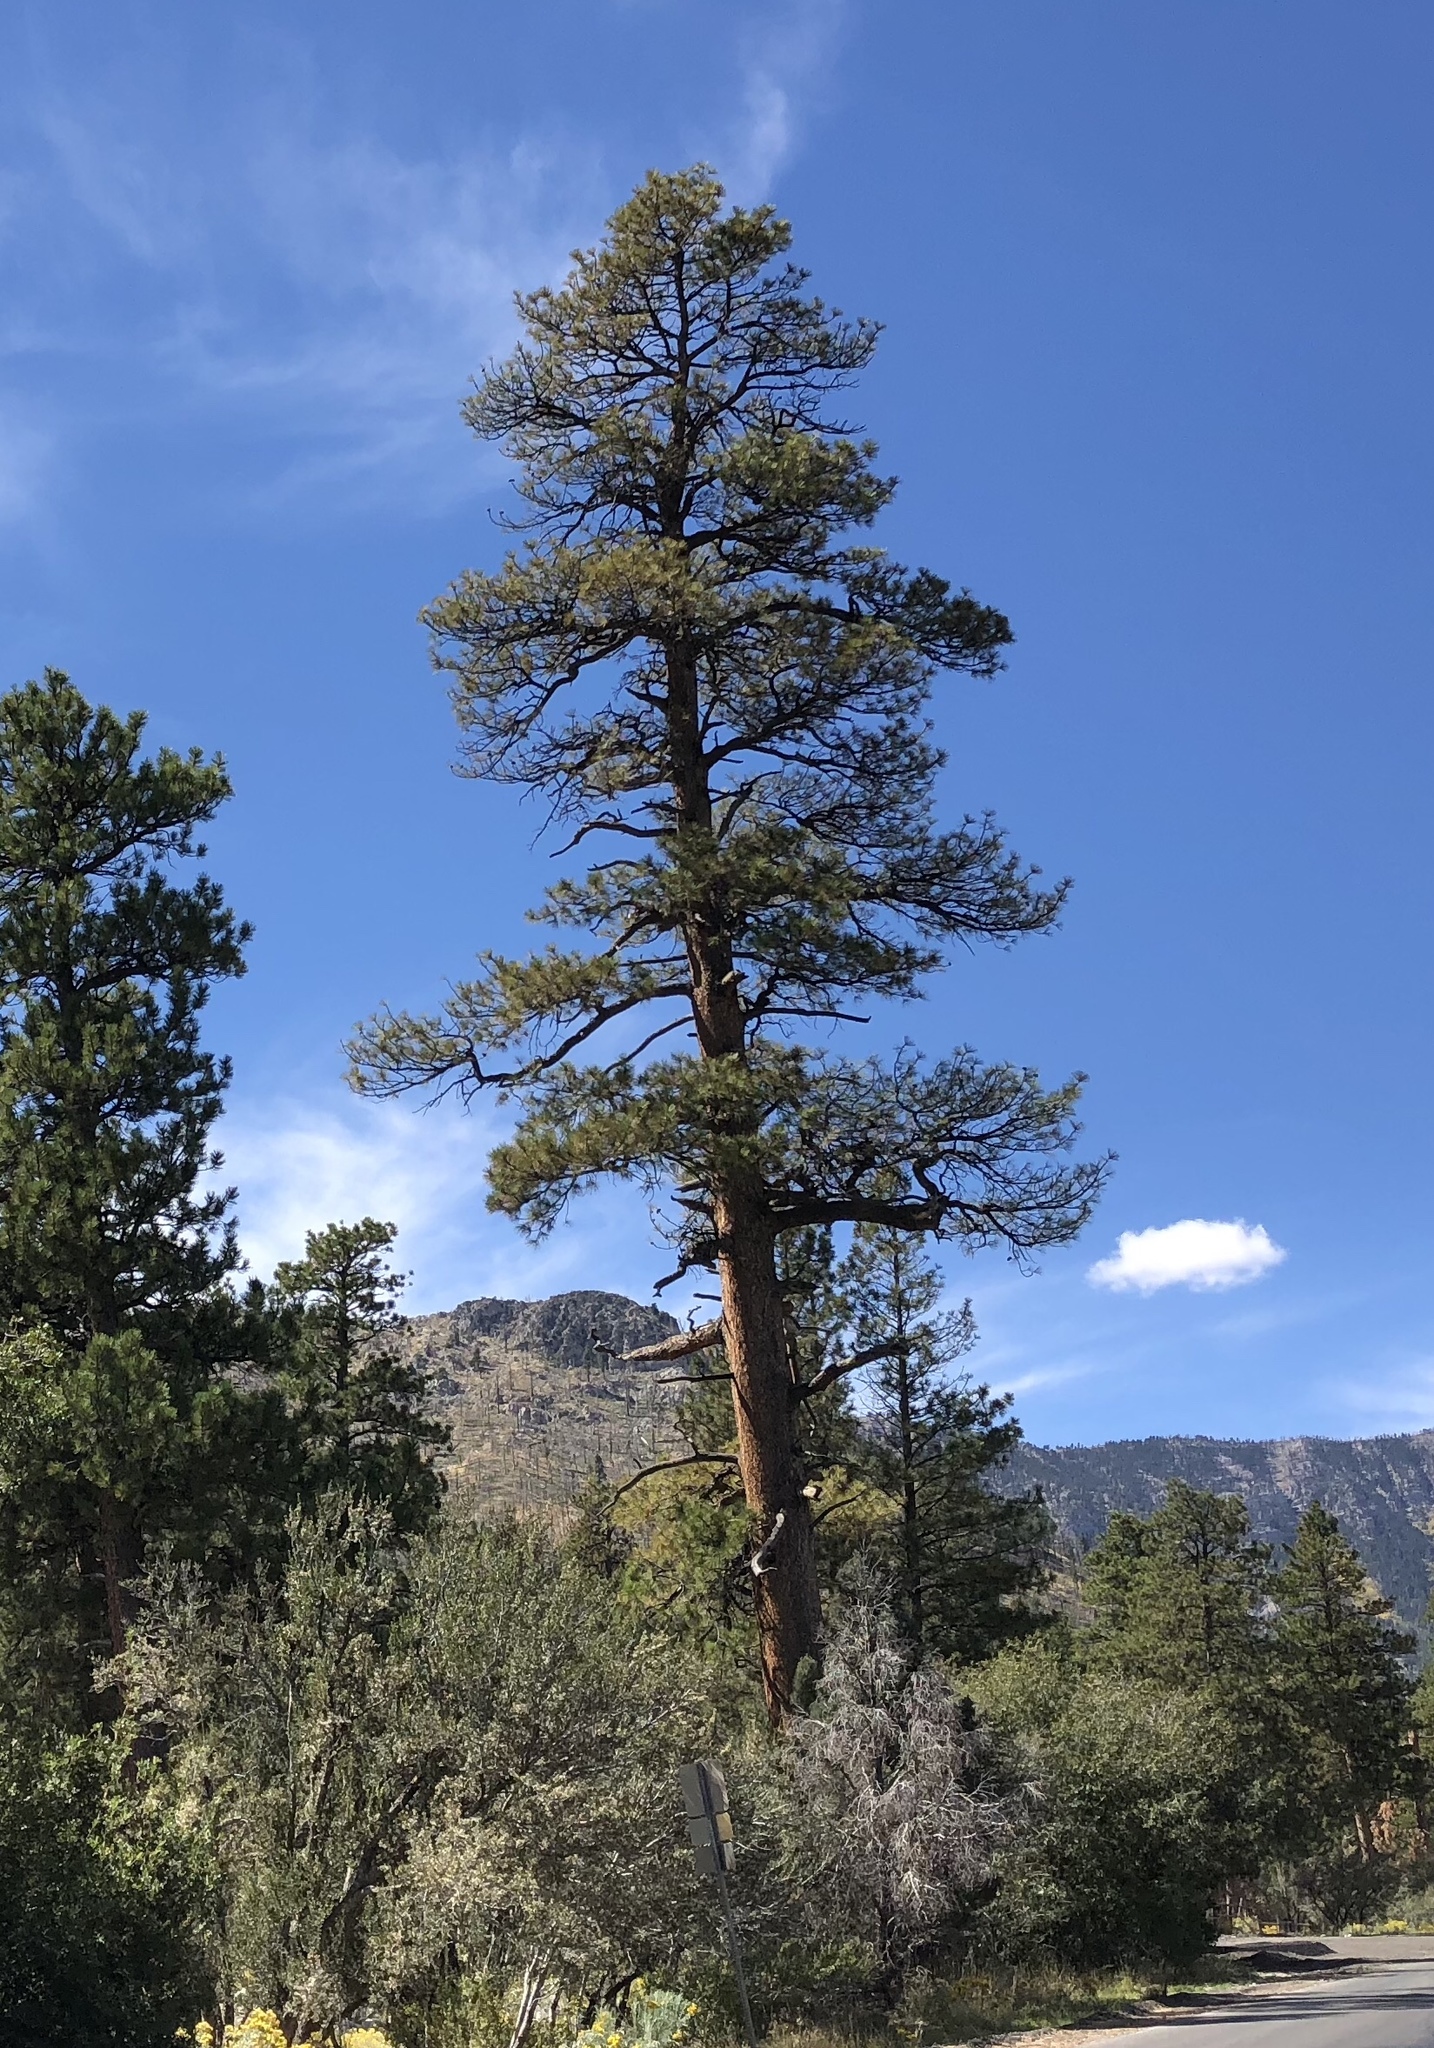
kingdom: Plantae
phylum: Tracheophyta
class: Pinopsida
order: Pinales
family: Pinaceae
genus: Pinus
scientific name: Pinus ponderosa
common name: Western yellow-pine
